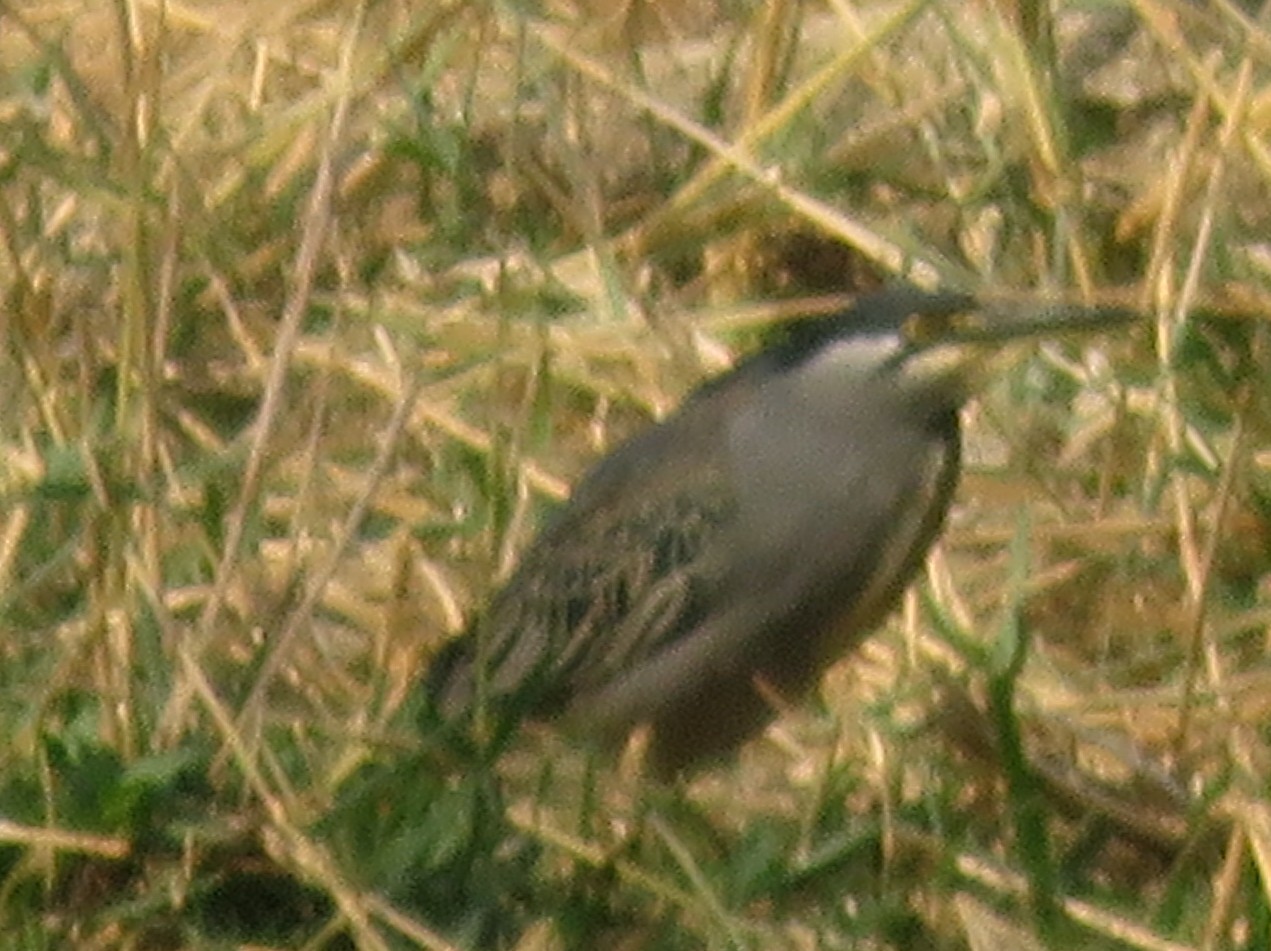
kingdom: Animalia
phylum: Chordata
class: Aves
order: Pelecaniformes
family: Ardeidae
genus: Butorides
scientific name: Butorides striata
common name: Striated heron
